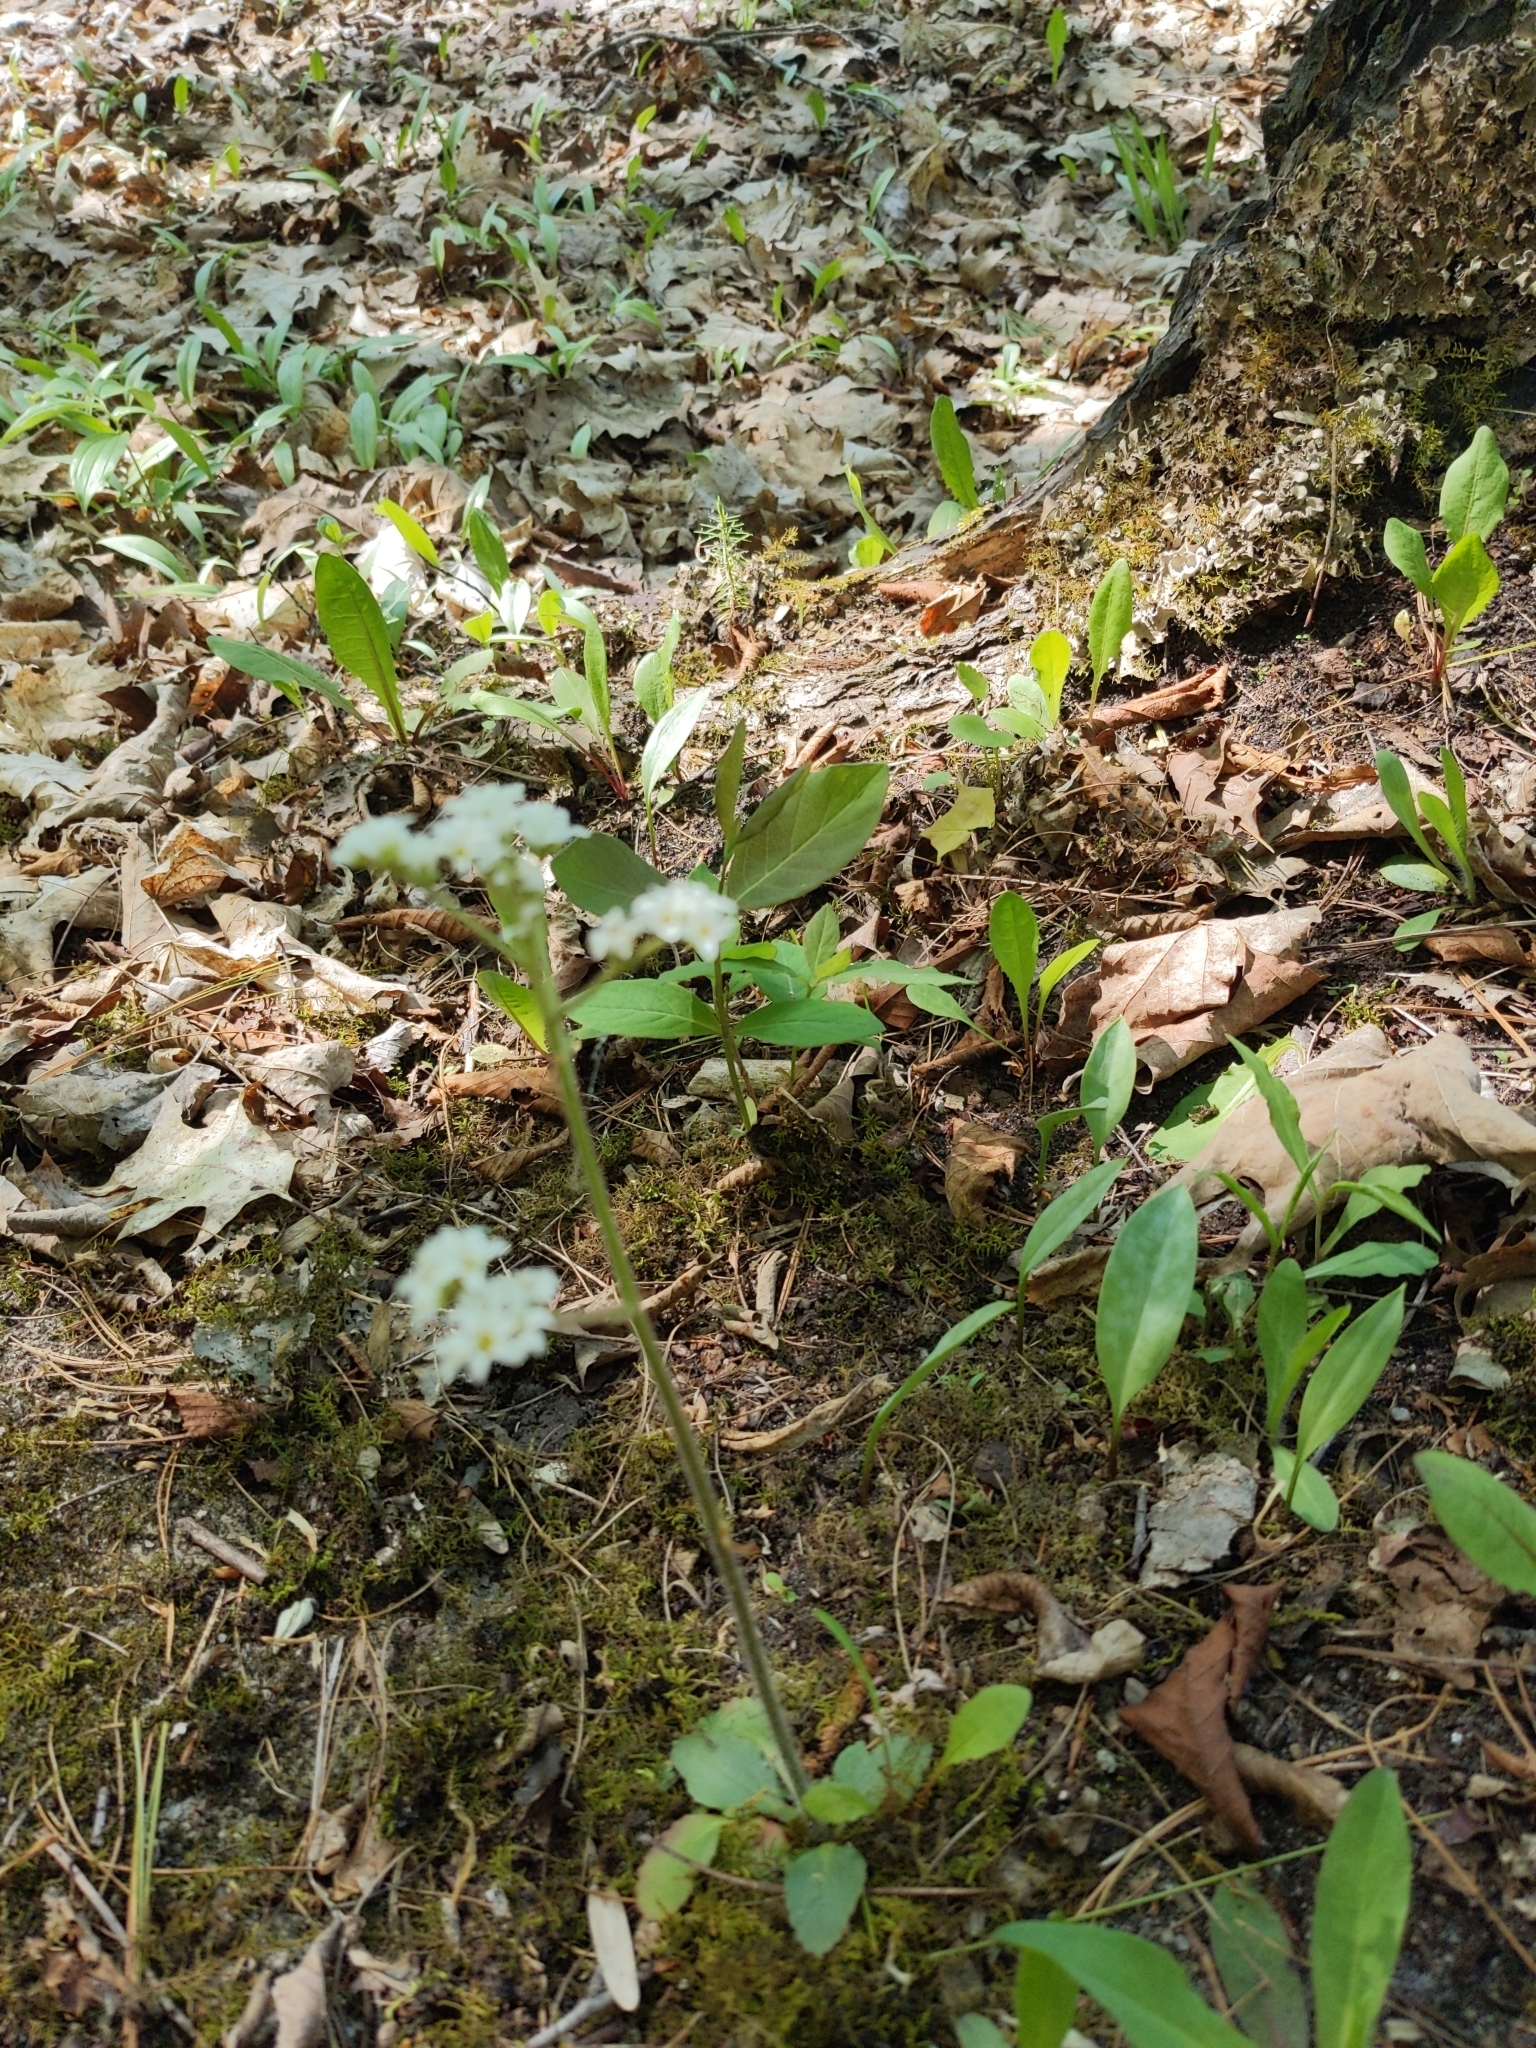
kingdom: Plantae
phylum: Tracheophyta
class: Magnoliopsida
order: Saxifragales
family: Saxifragaceae
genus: Micranthes
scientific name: Micranthes virginiensis
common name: Early saxifrage
